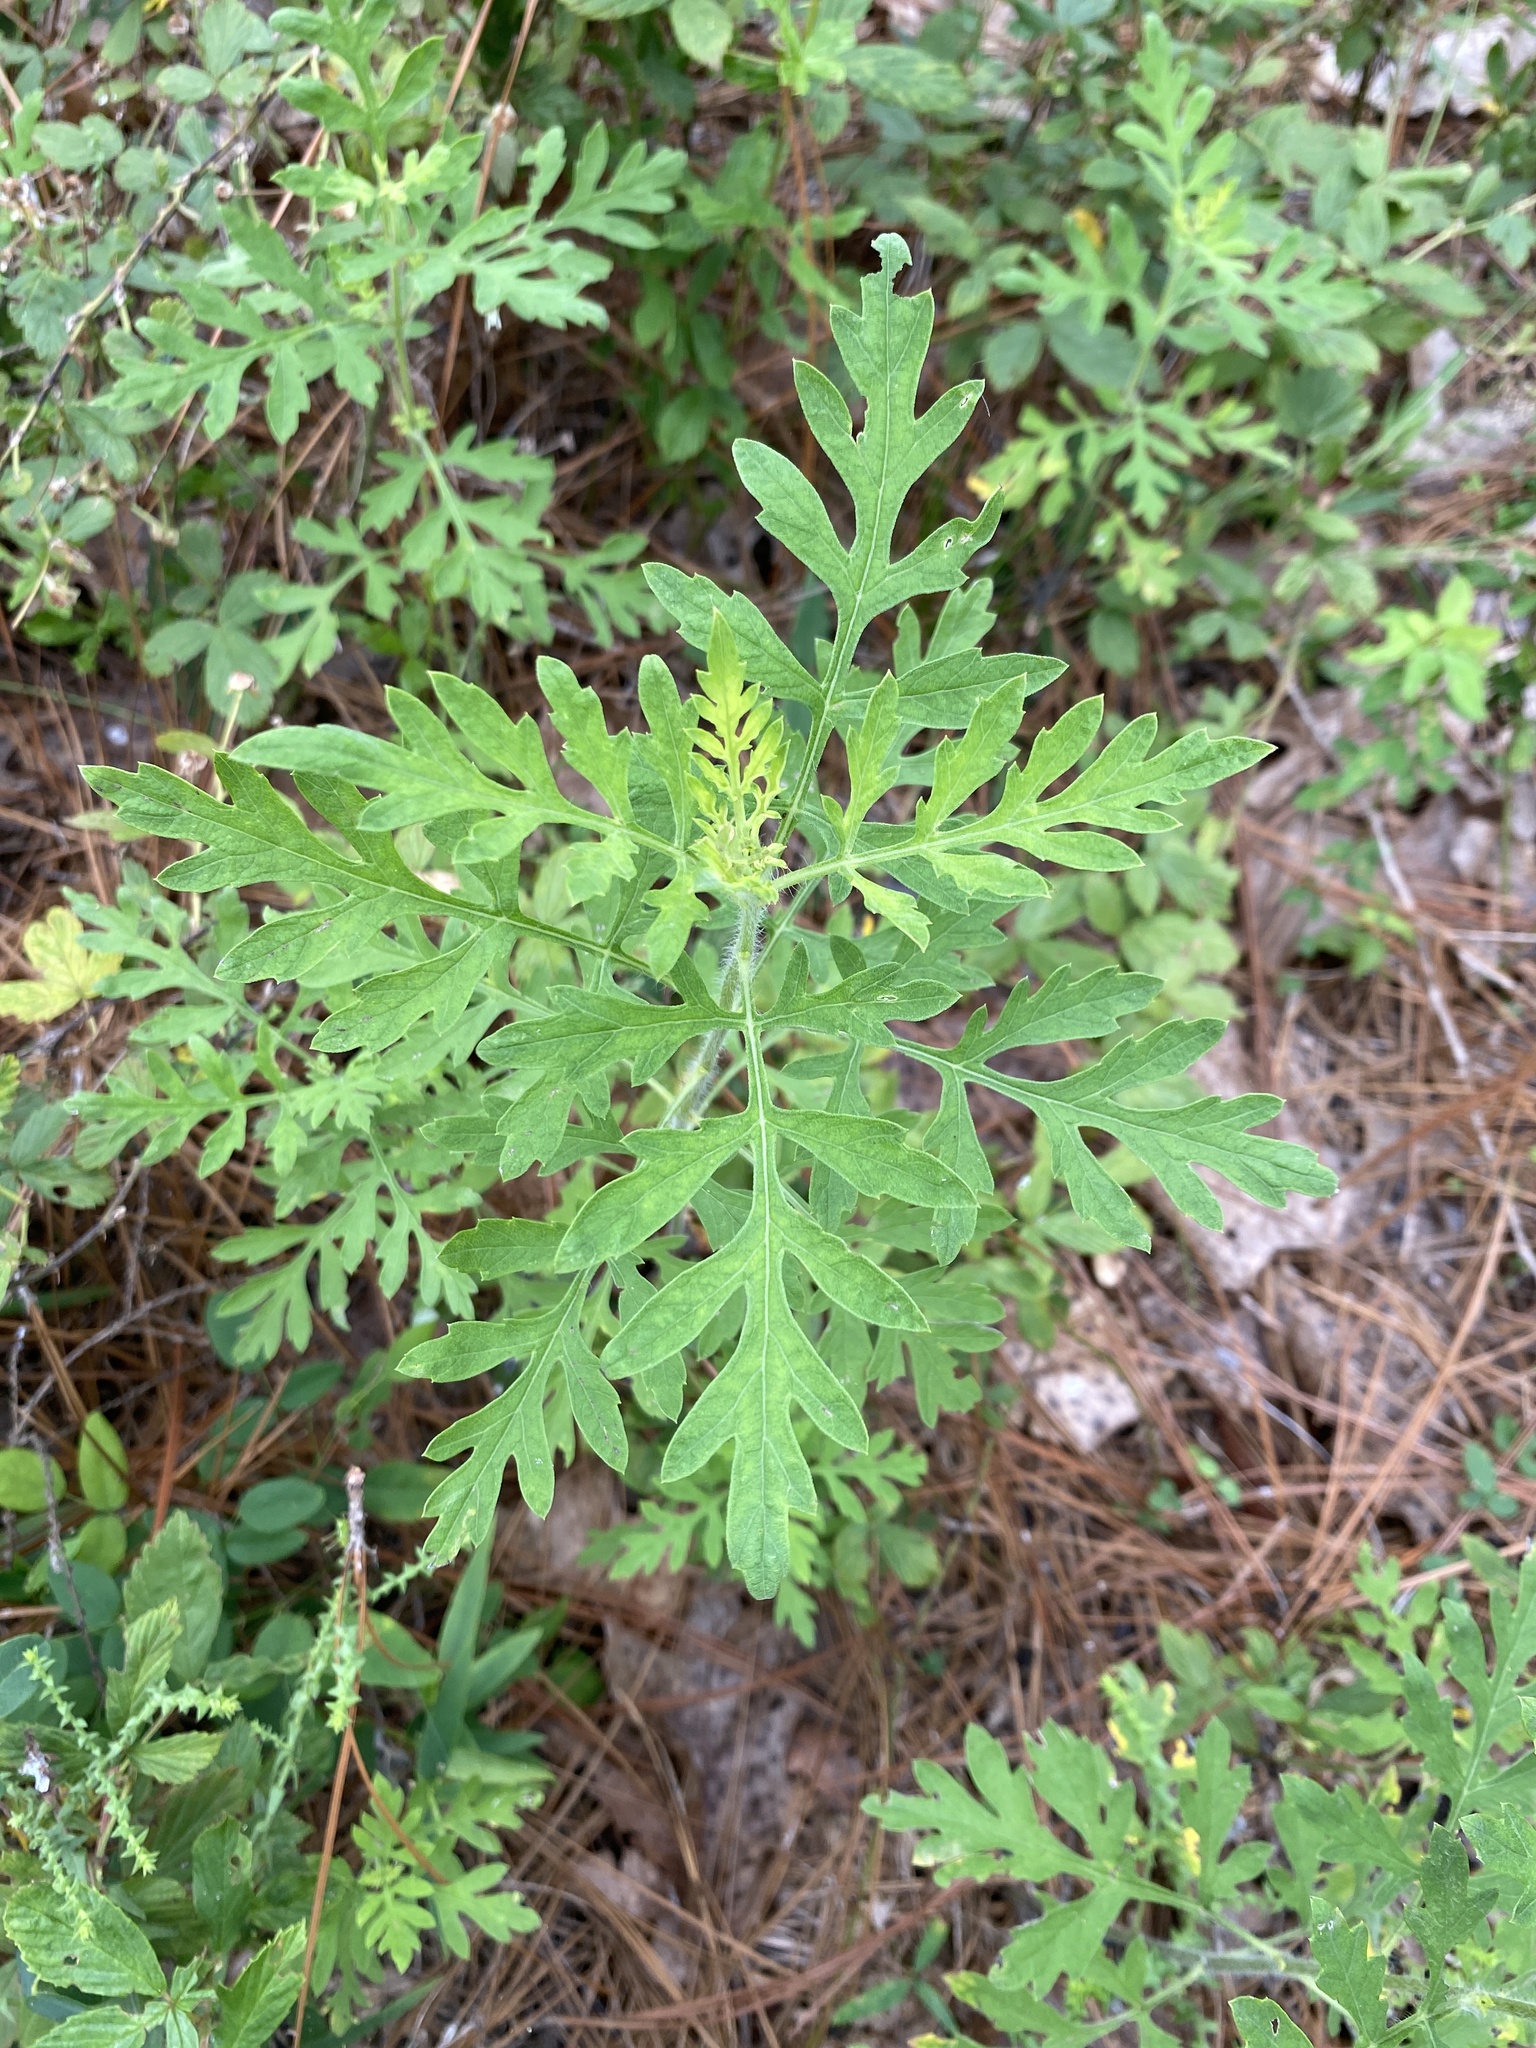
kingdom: Plantae
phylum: Tracheophyta
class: Magnoliopsida
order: Asterales
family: Asteraceae
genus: Ambrosia
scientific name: Ambrosia psilostachya
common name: Perennial ragweed
